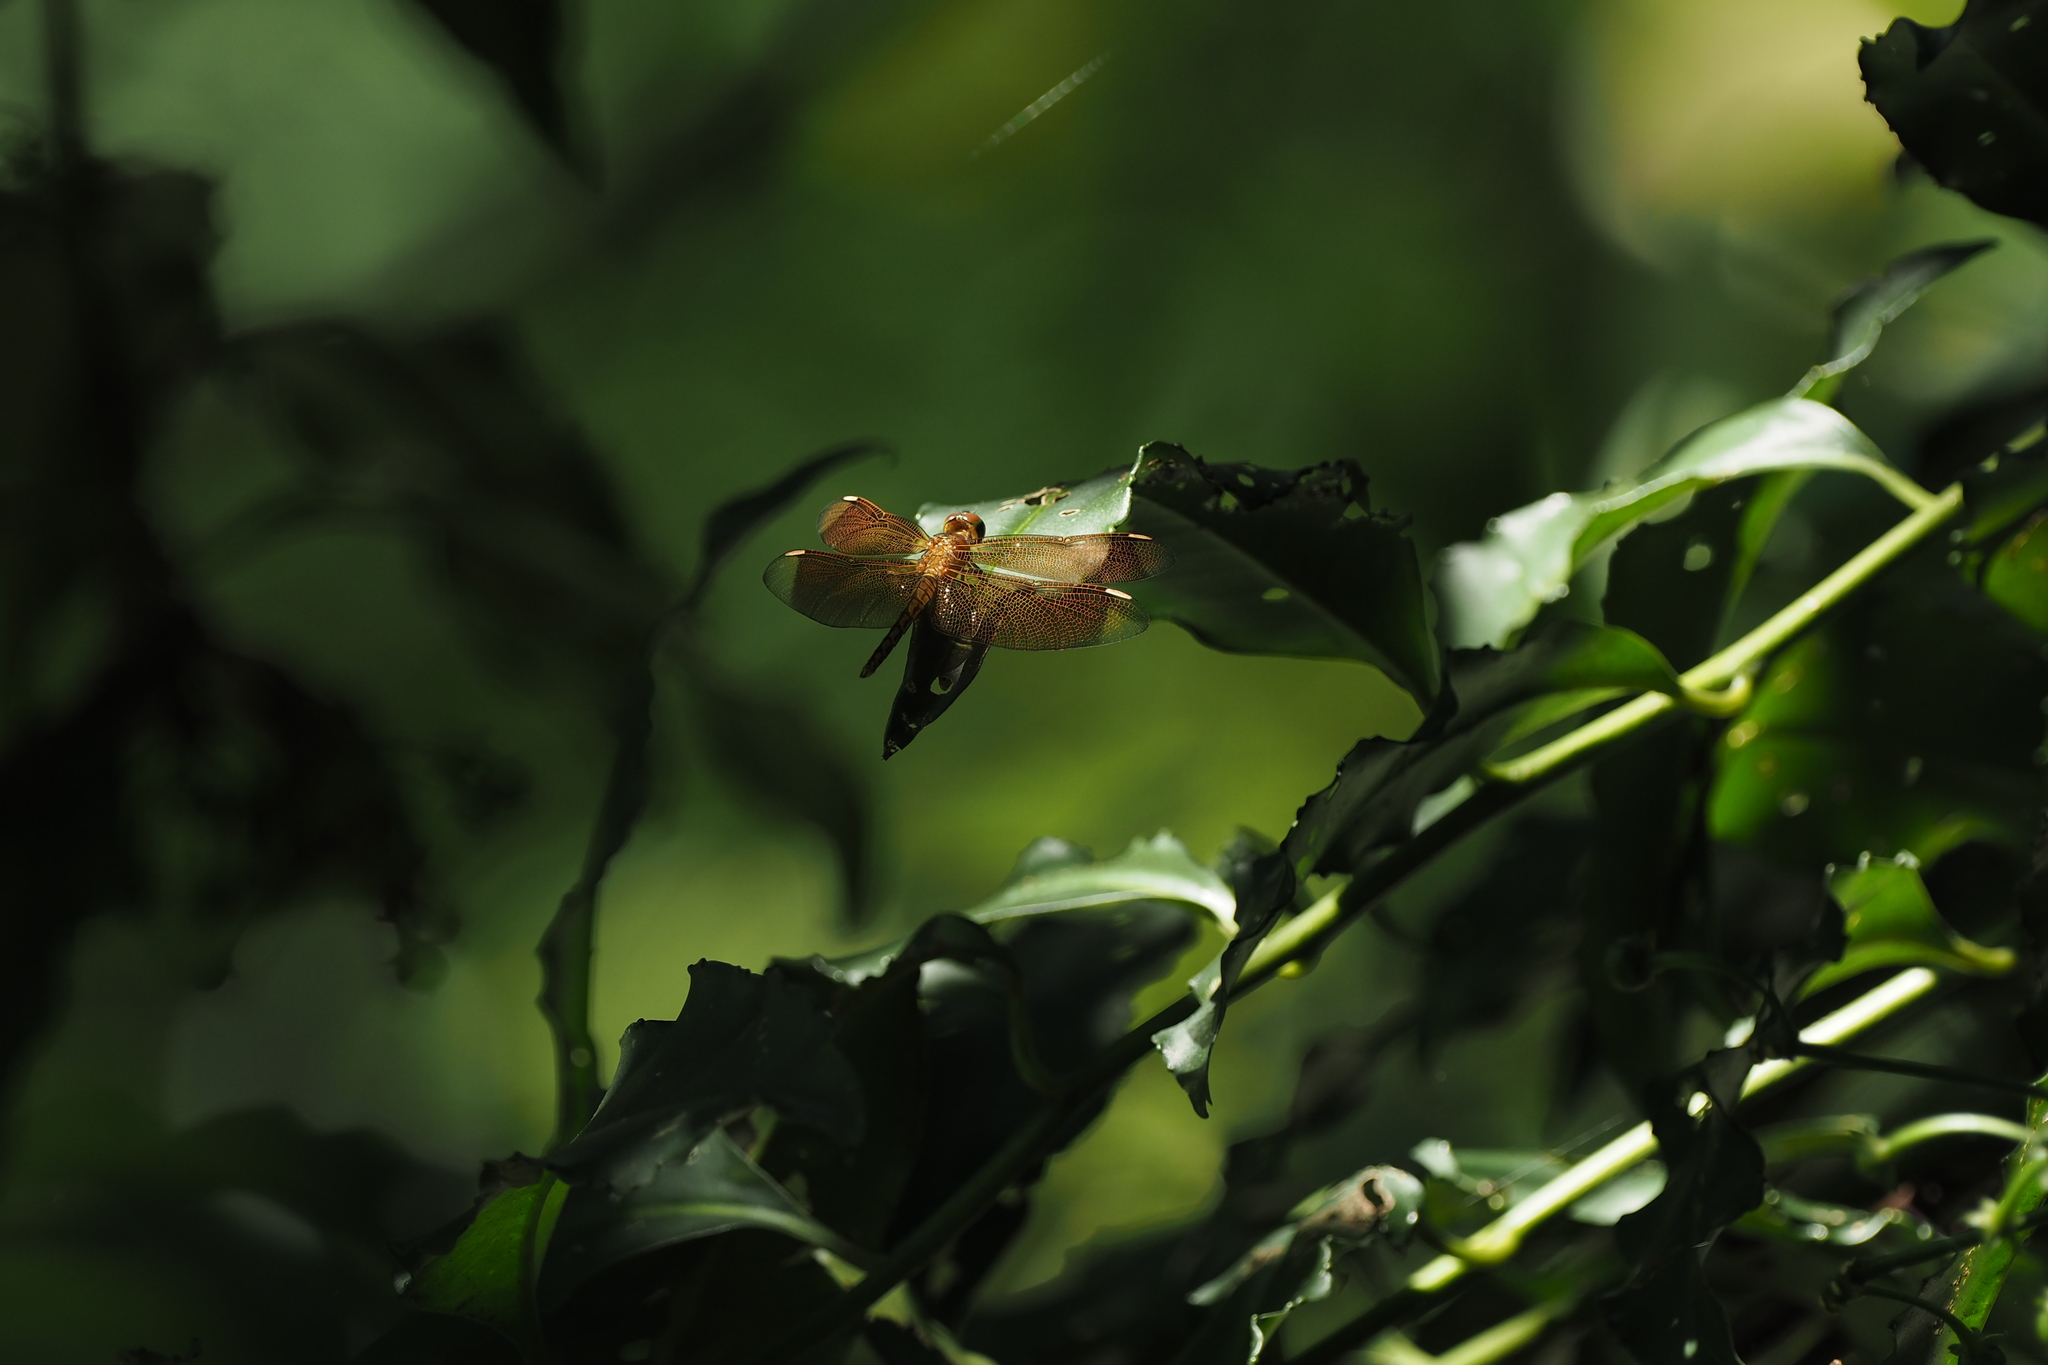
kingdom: Animalia
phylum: Arthropoda
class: Insecta
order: Odonata
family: Libellulidae
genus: Neurothemis
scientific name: Neurothemis taiwanensis
